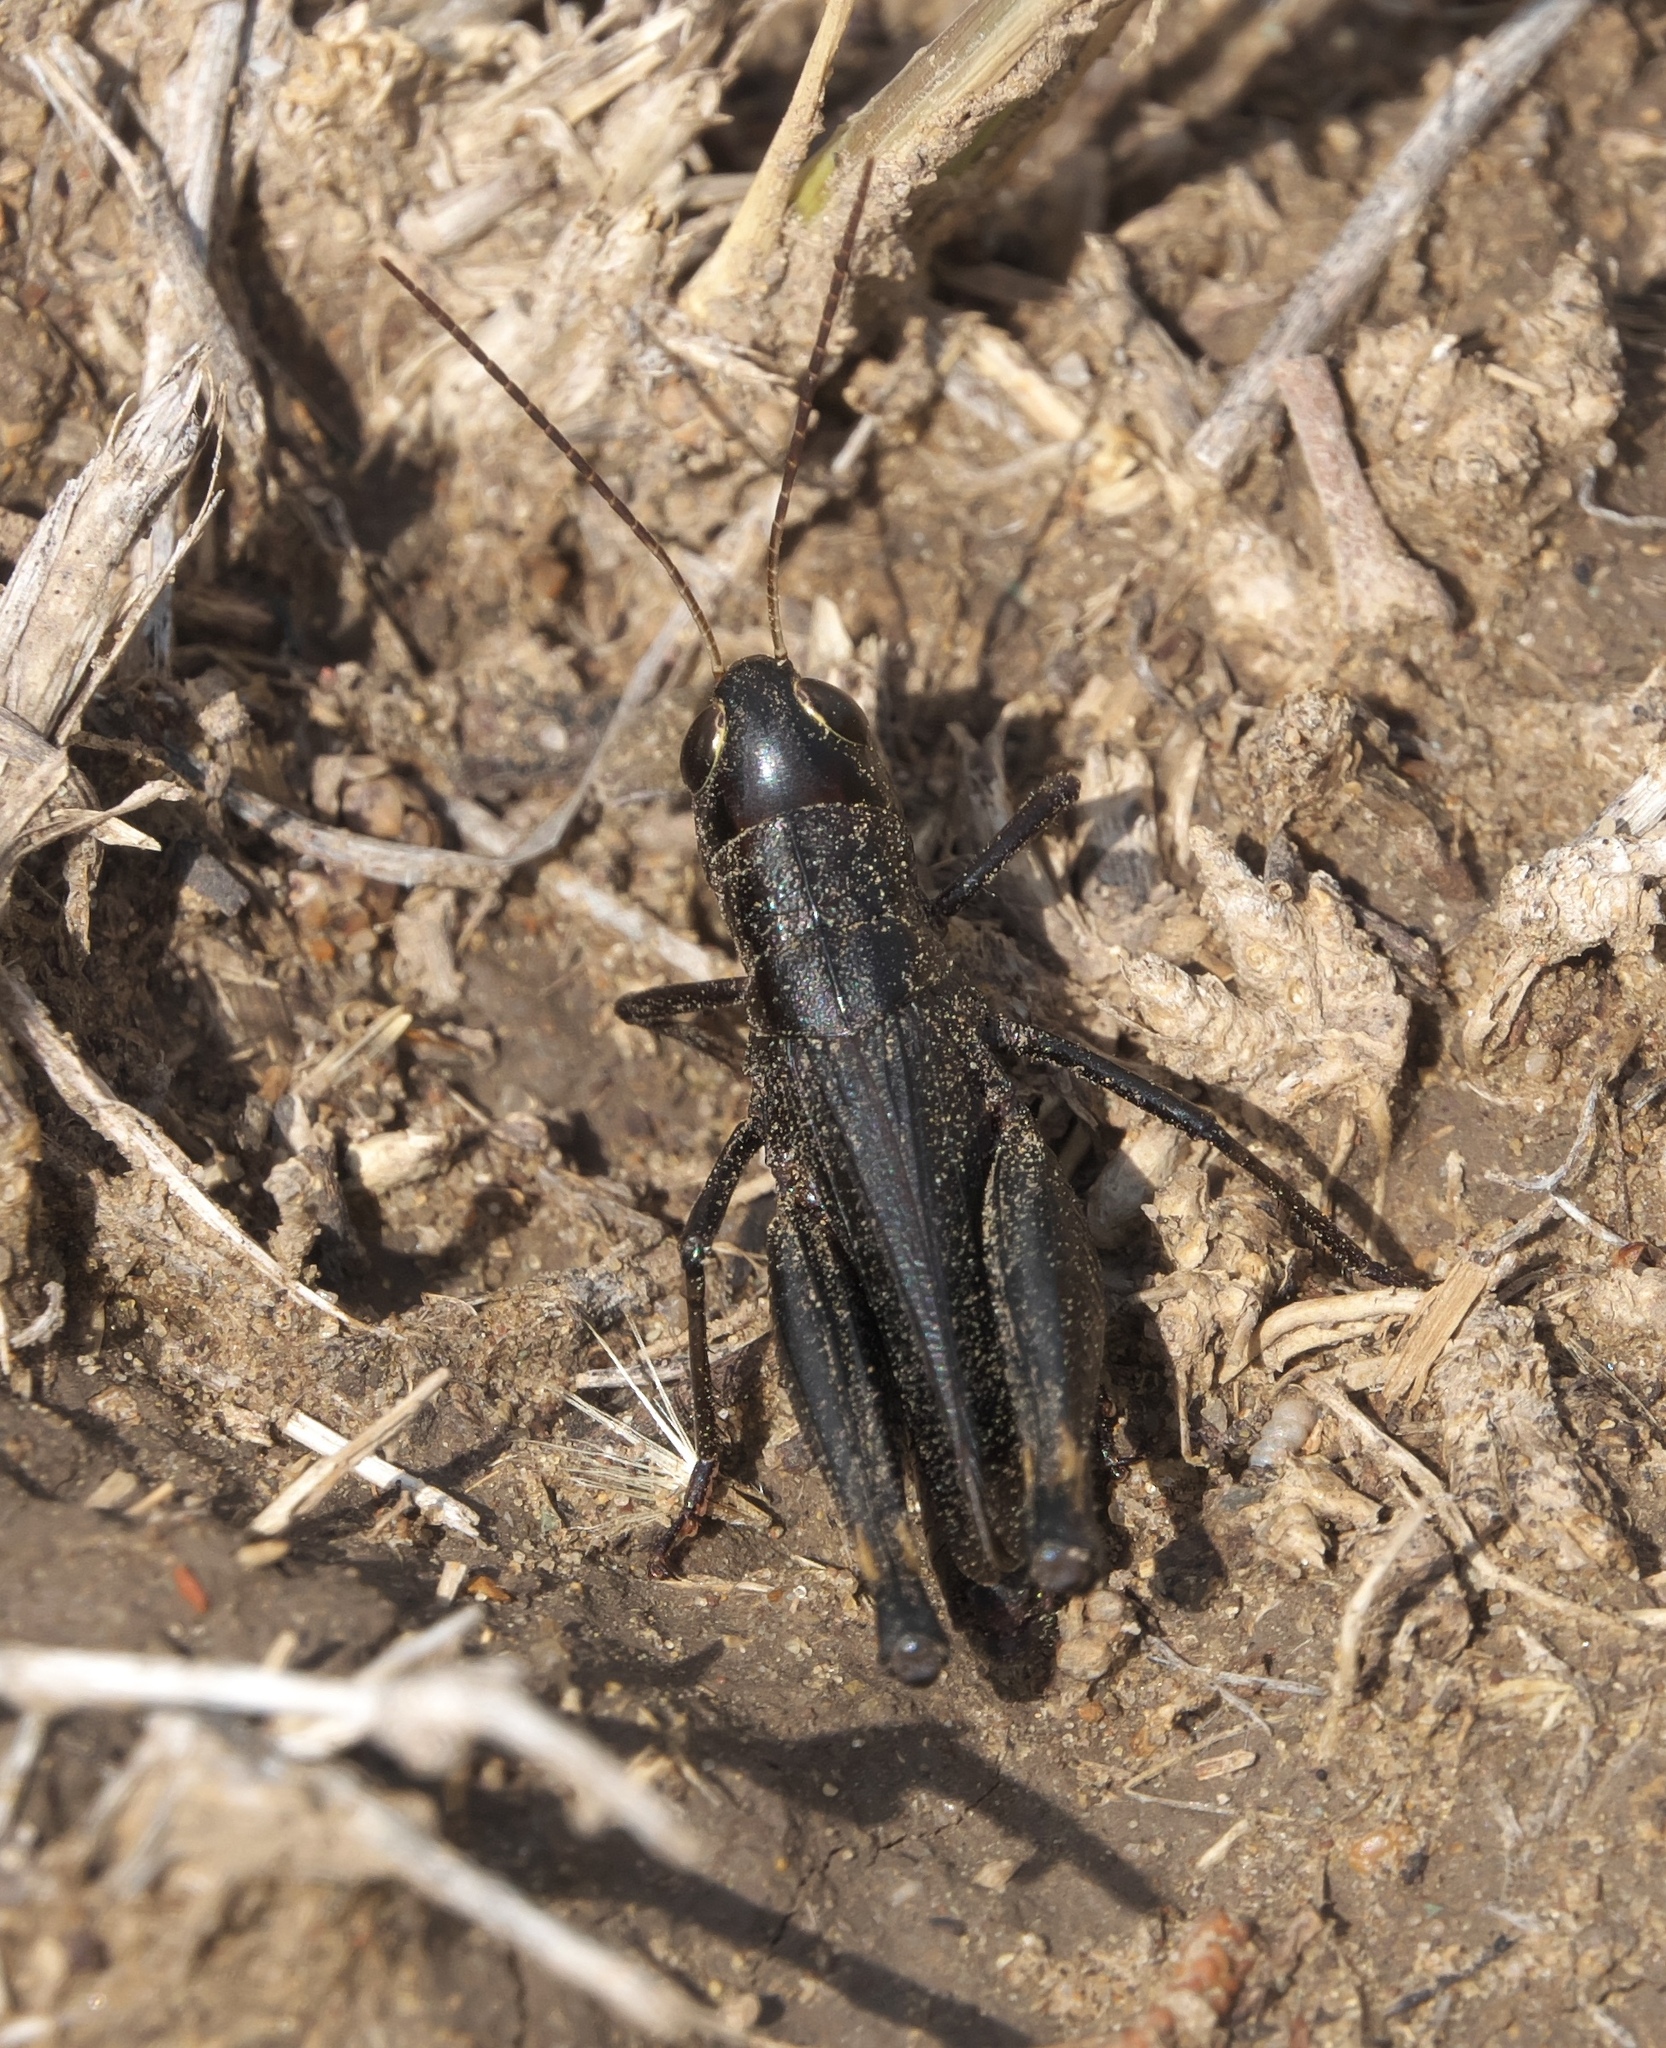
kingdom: Animalia
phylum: Arthropoda
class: Insecta
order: Orthoptera
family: Acrididae
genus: Boopedon
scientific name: Boopedon nubilum
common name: Ebony grasshopper
